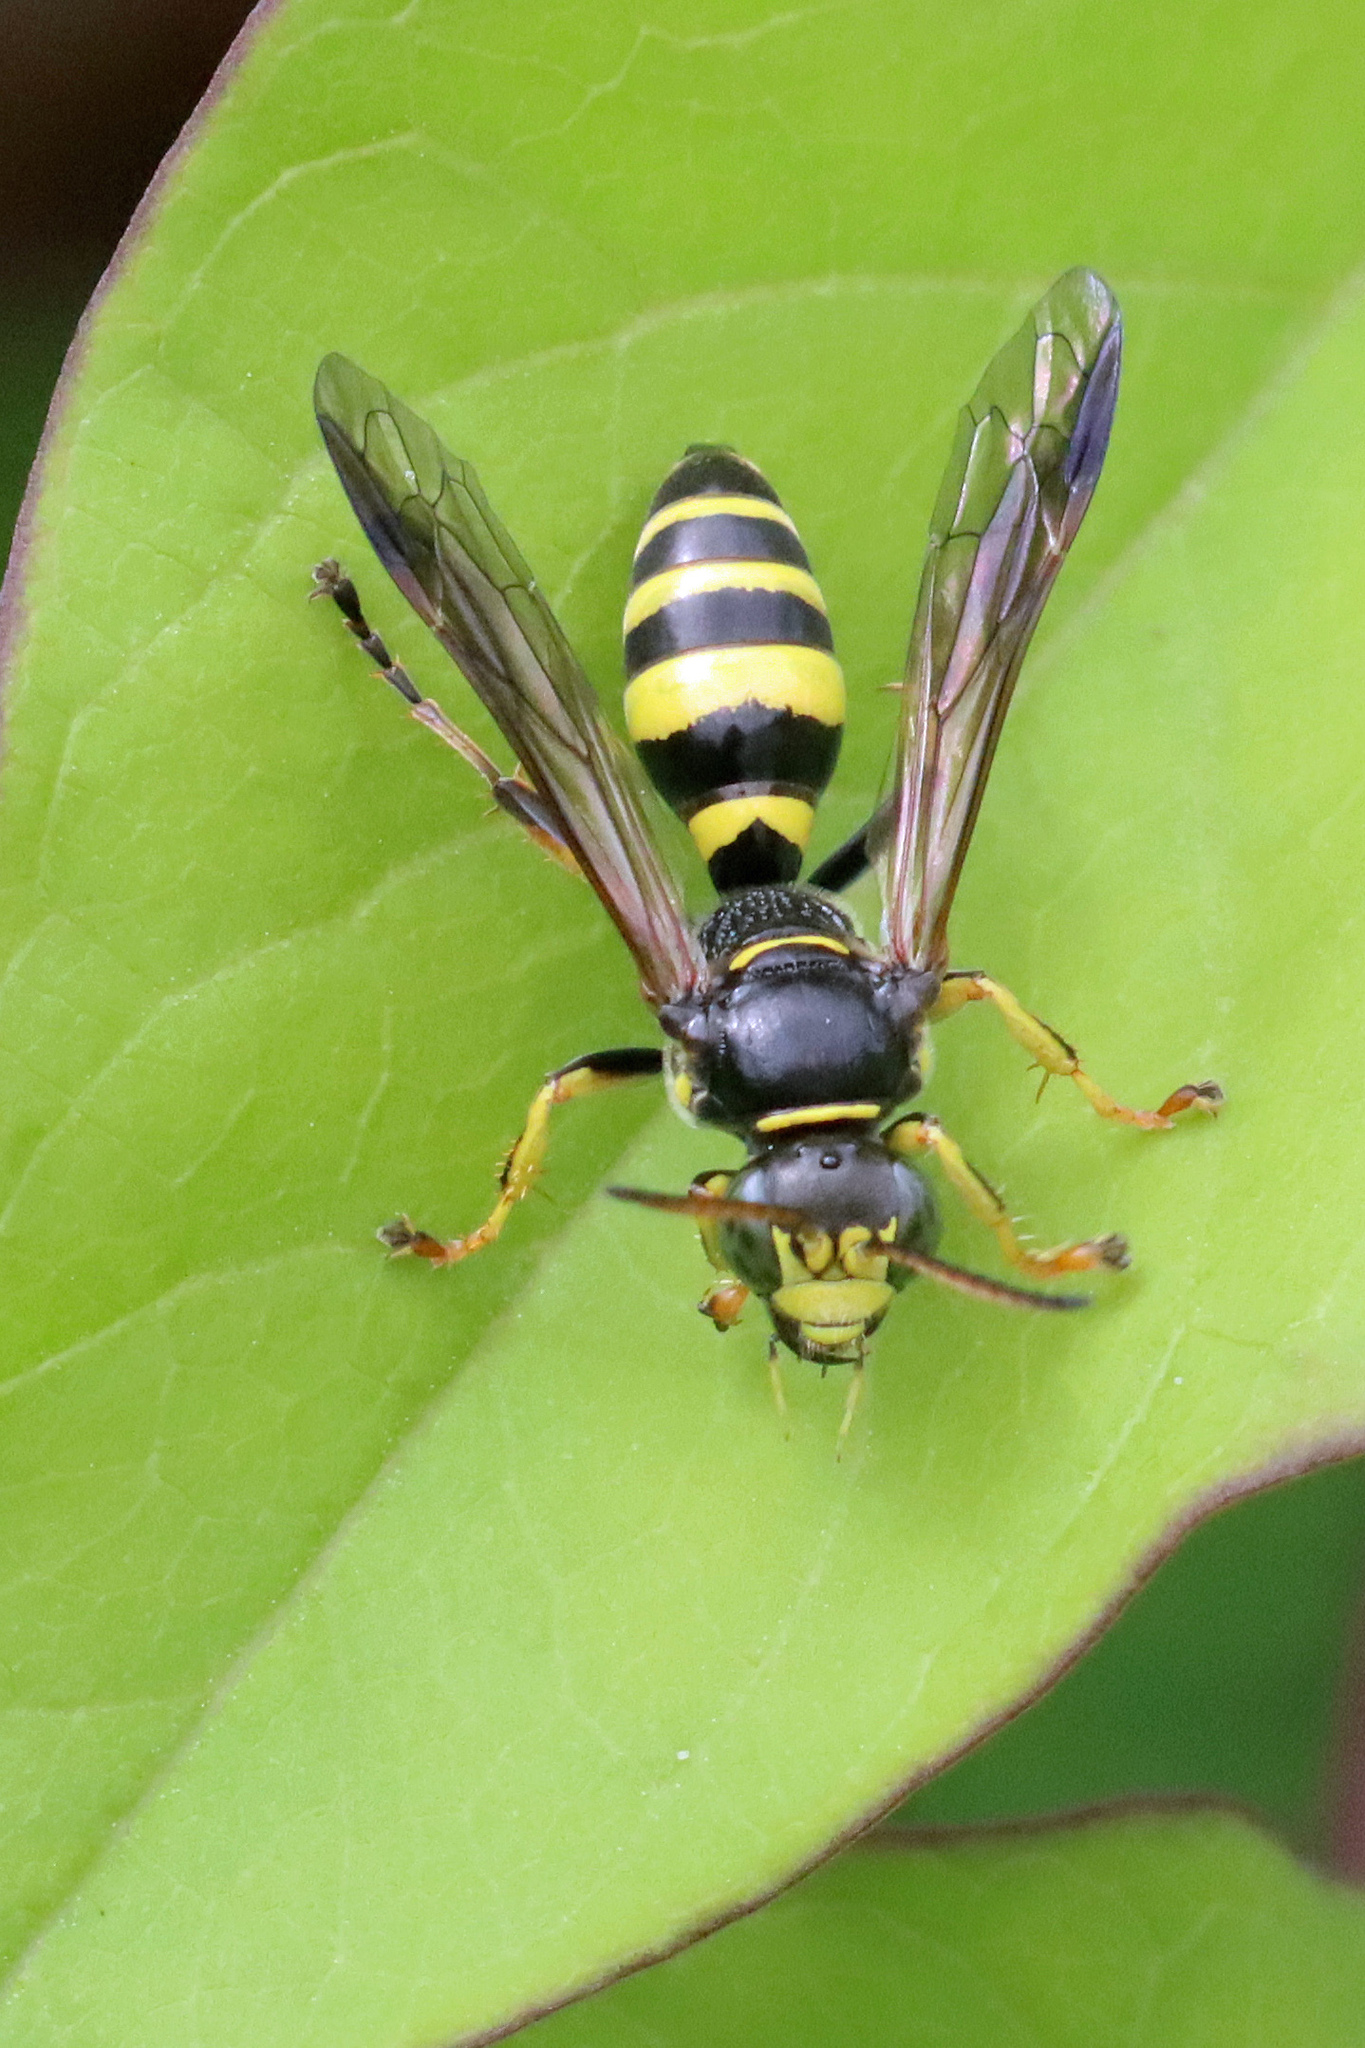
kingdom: Animalia
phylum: Arthropoda
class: Insecta
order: Hymenoptera
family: Crabronidae
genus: Gorytes
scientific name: Gorytes laticinctus
